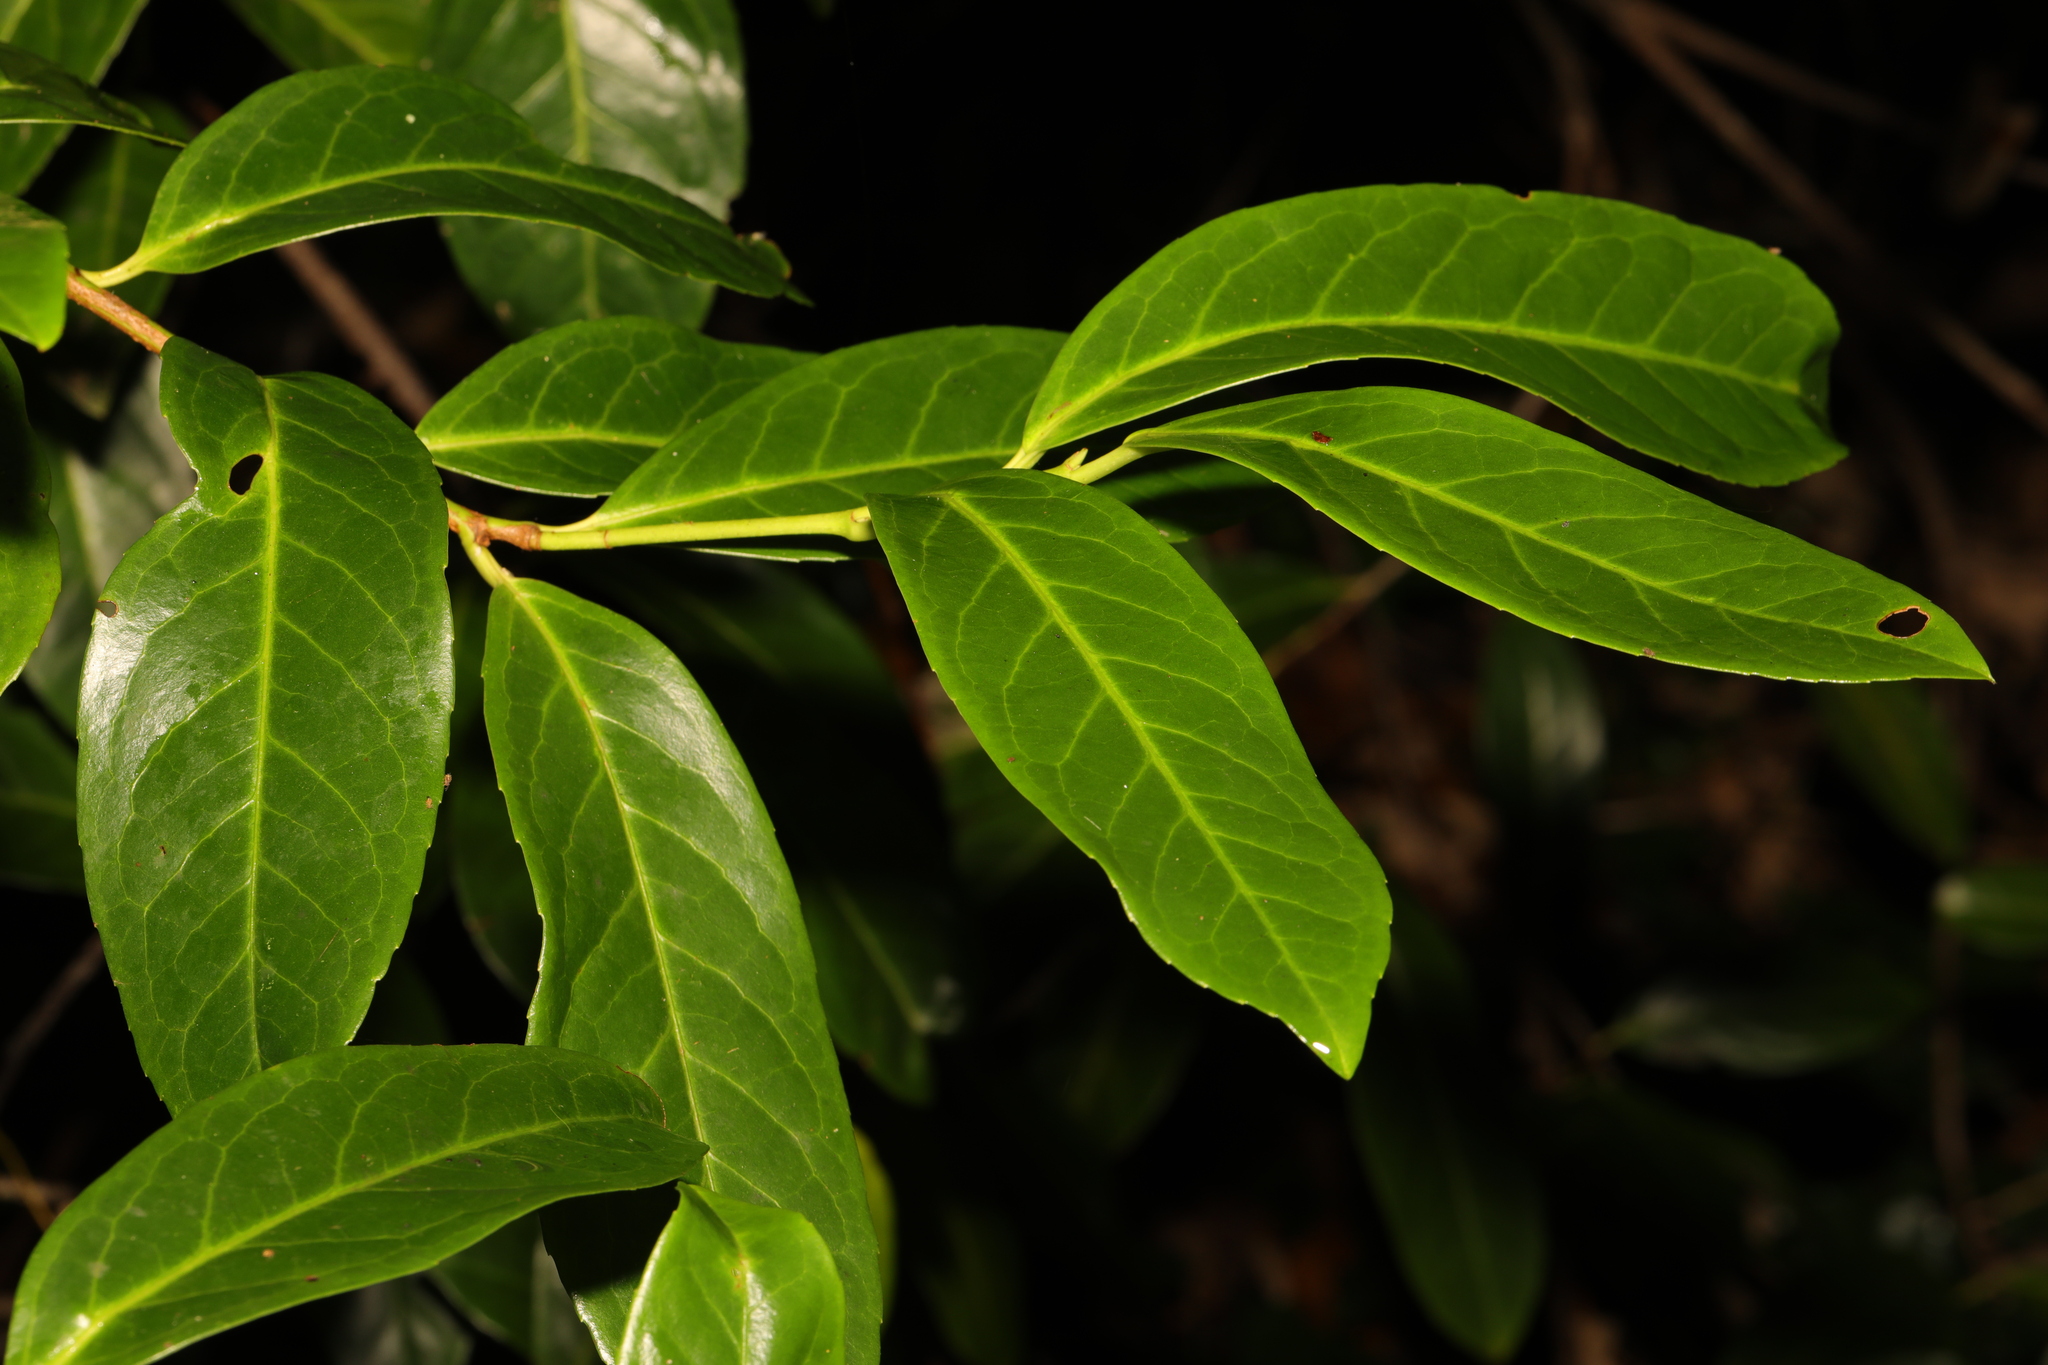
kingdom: Plantae
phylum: Tracheophyta
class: Magnoliopsida
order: Rosales
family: Rosaceae
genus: Prunus
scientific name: Prunus laurocerasus
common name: Cherry laurel
